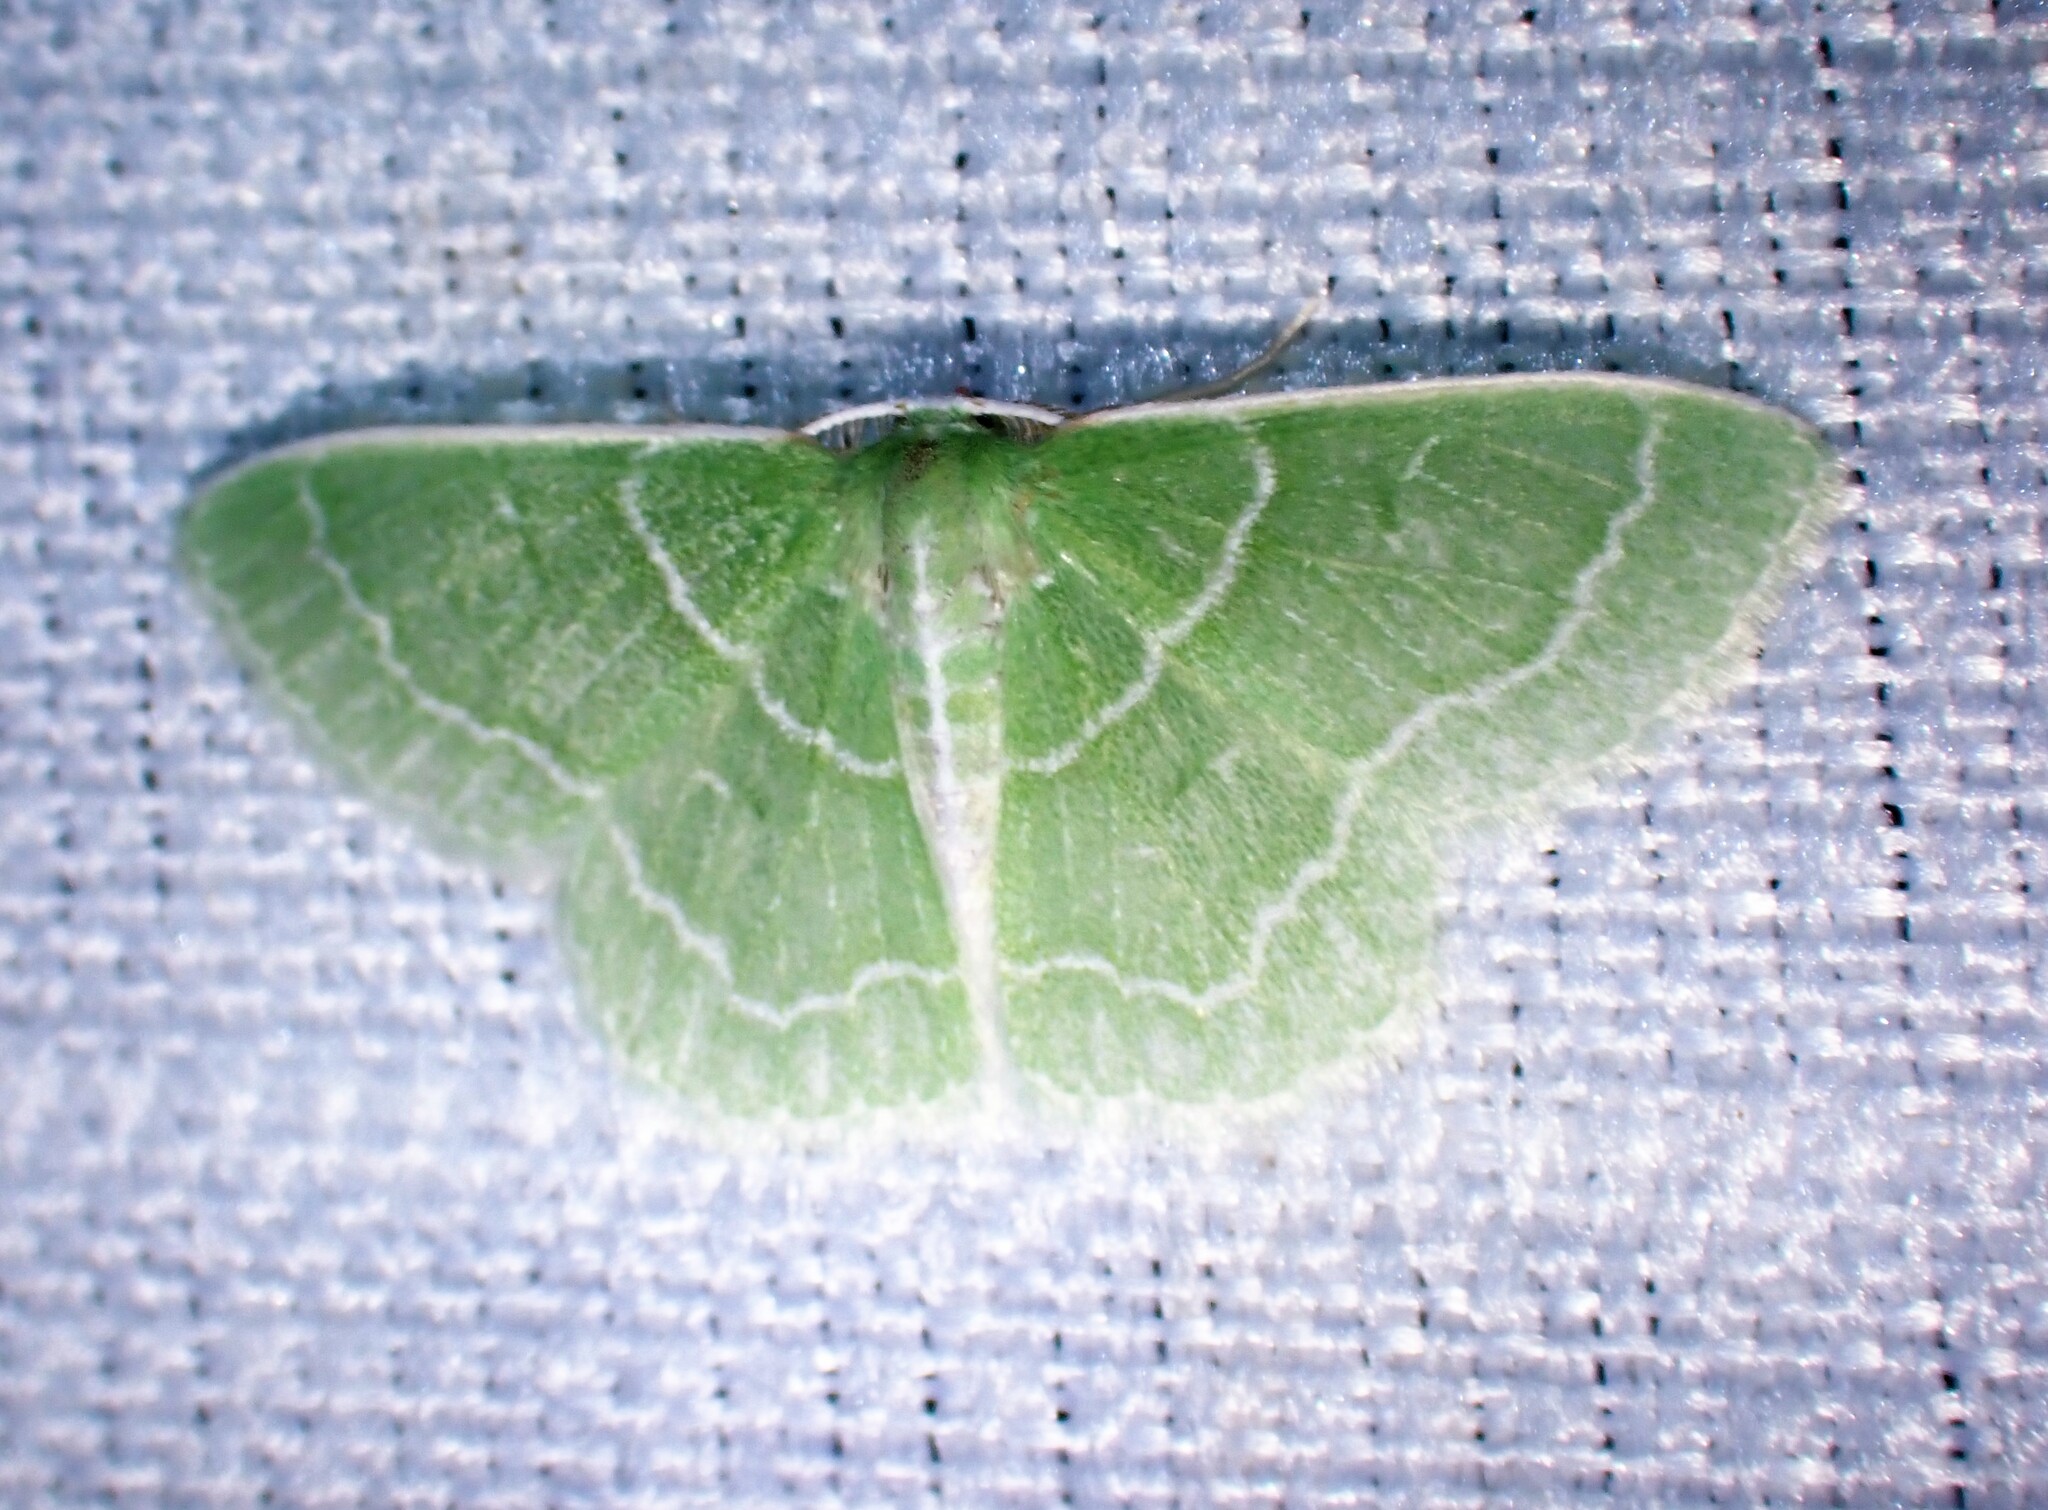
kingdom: Animalia
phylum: Arthropoda
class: Insecta
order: Lepidoptera
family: Geometridae
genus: Synchlora
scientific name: Synchlora aerata
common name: Wavy-lined emerald
